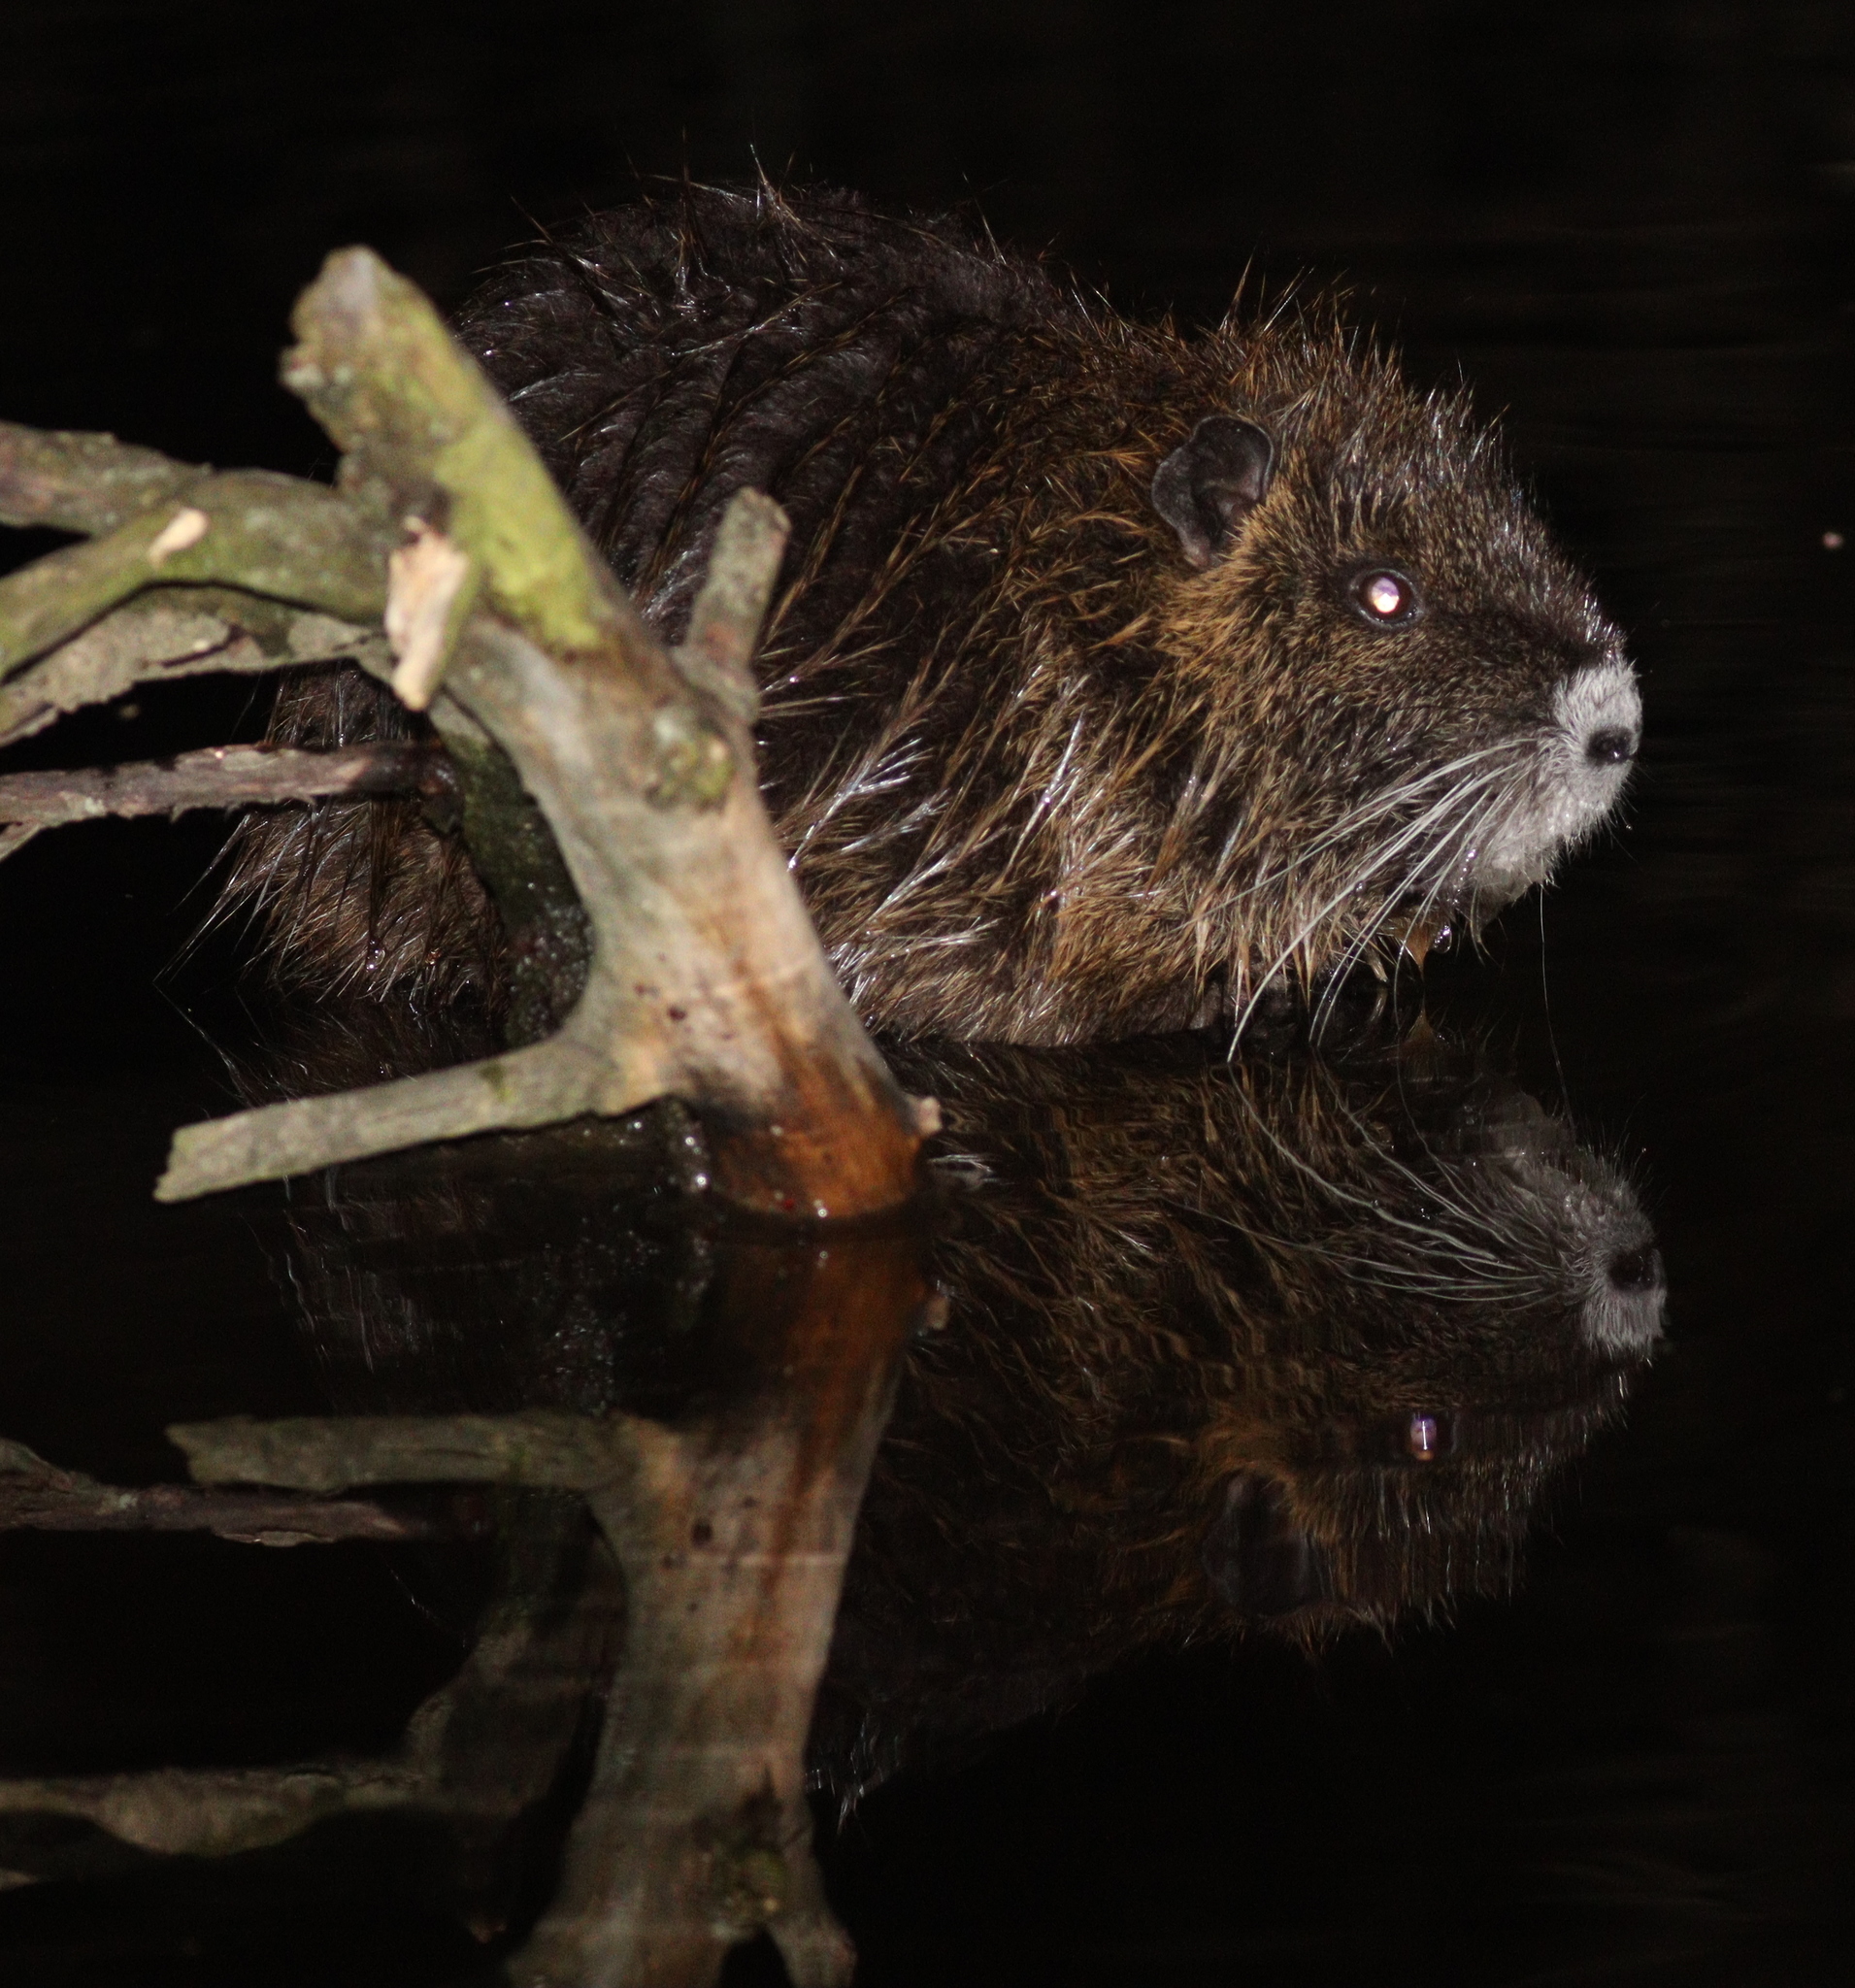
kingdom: Animalia
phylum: Chordata
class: Mammalia
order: Rodentia
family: Myocastoridae
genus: Myocastor
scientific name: Myocastor coypus
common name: Coypu
